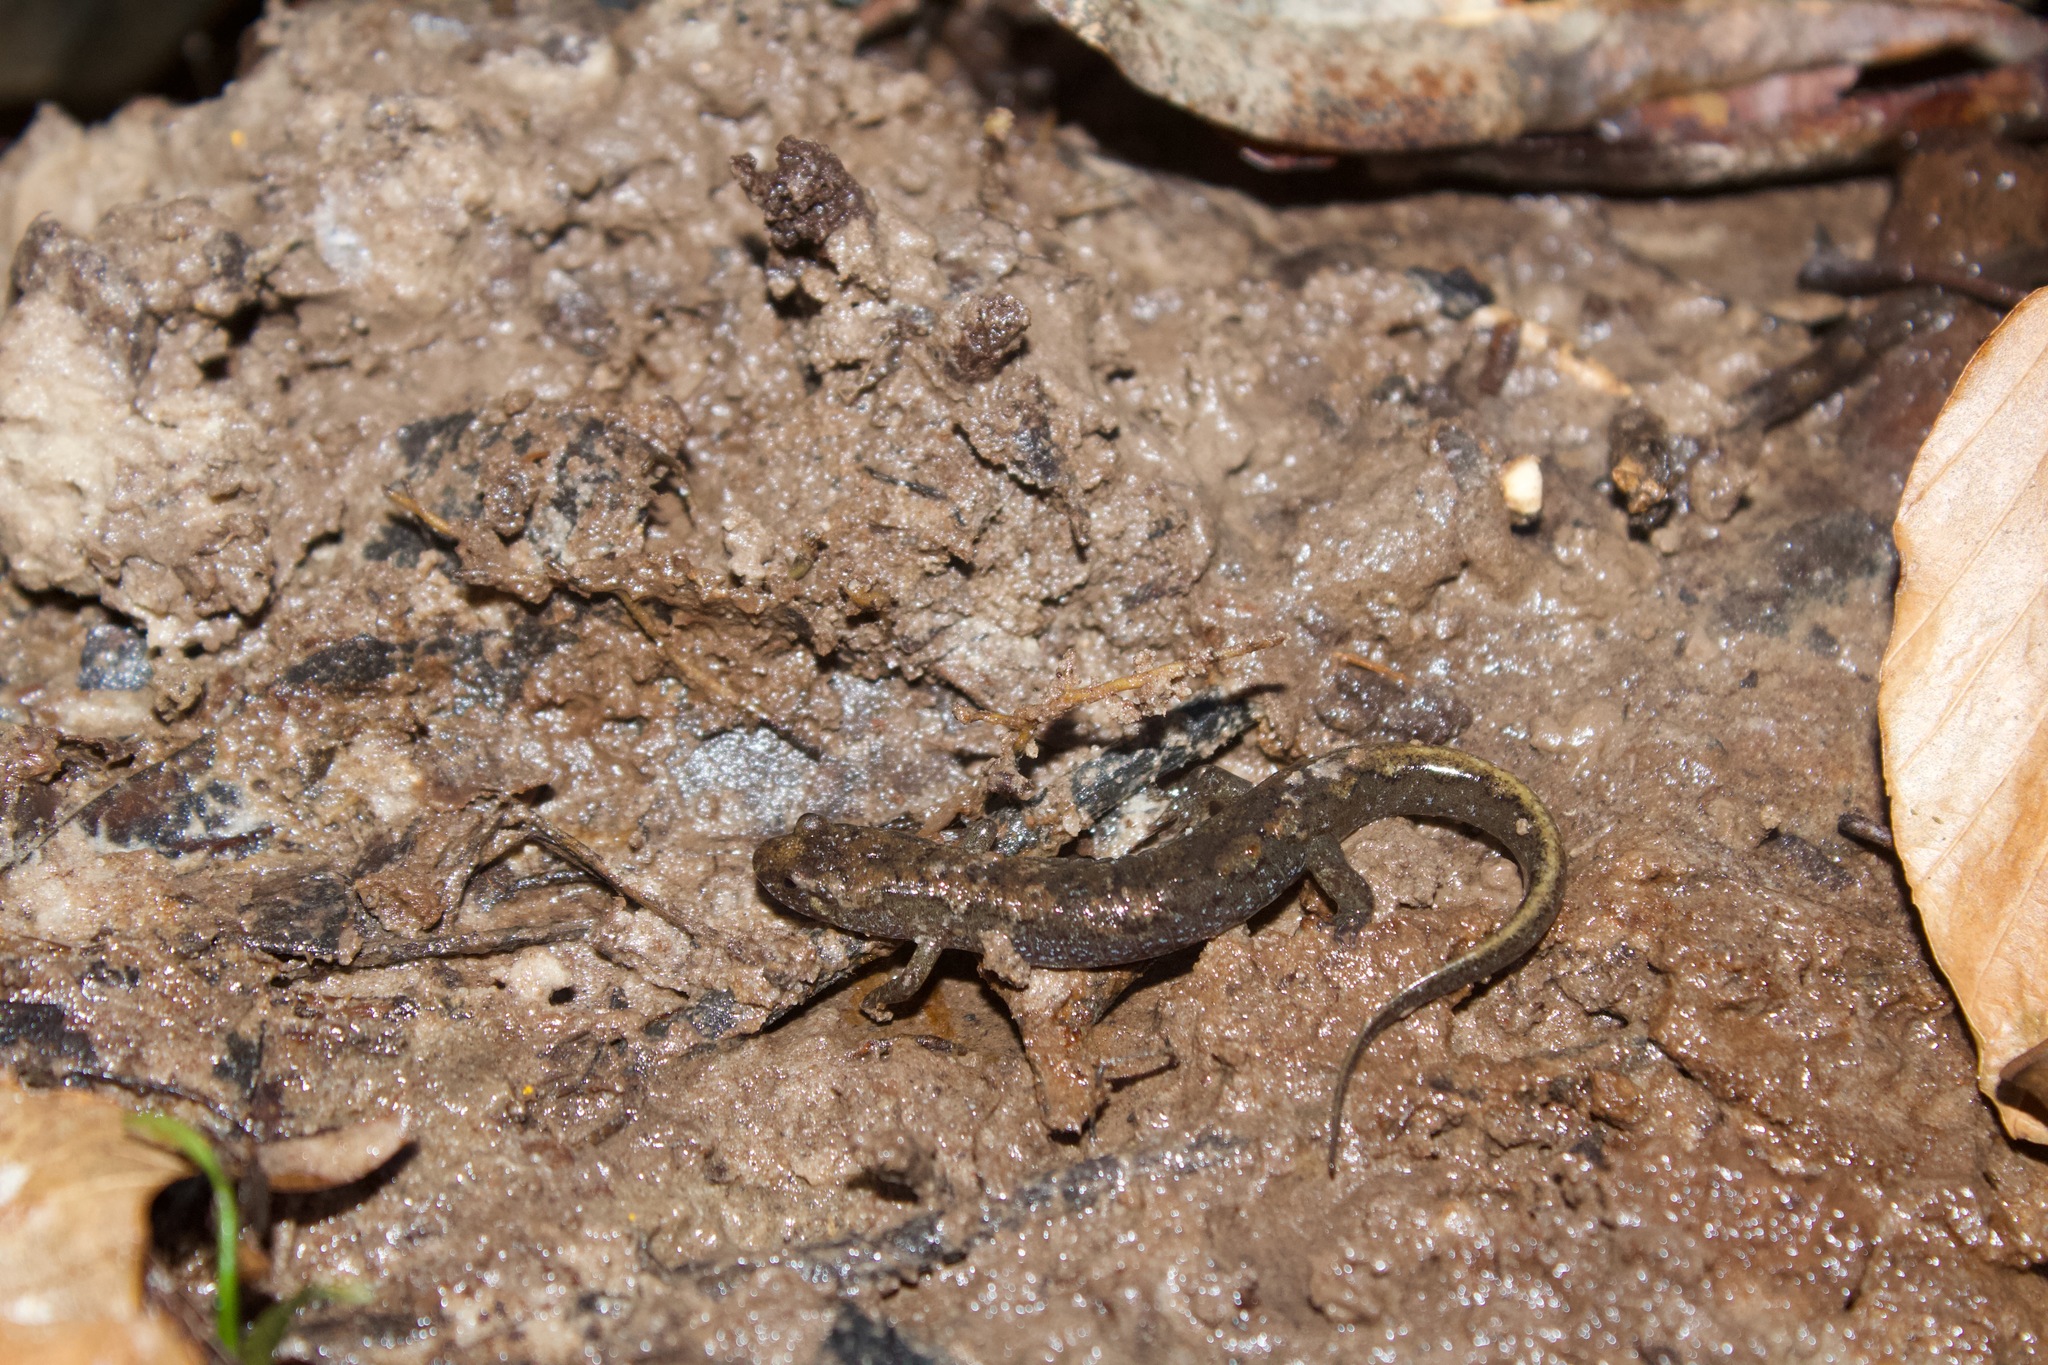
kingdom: Animalia
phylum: Chordata
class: Amphibia
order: Caudata
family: Plethodontidae
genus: Desmognathus
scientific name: Desmognathus conanti
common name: Spotted dusky salamander
